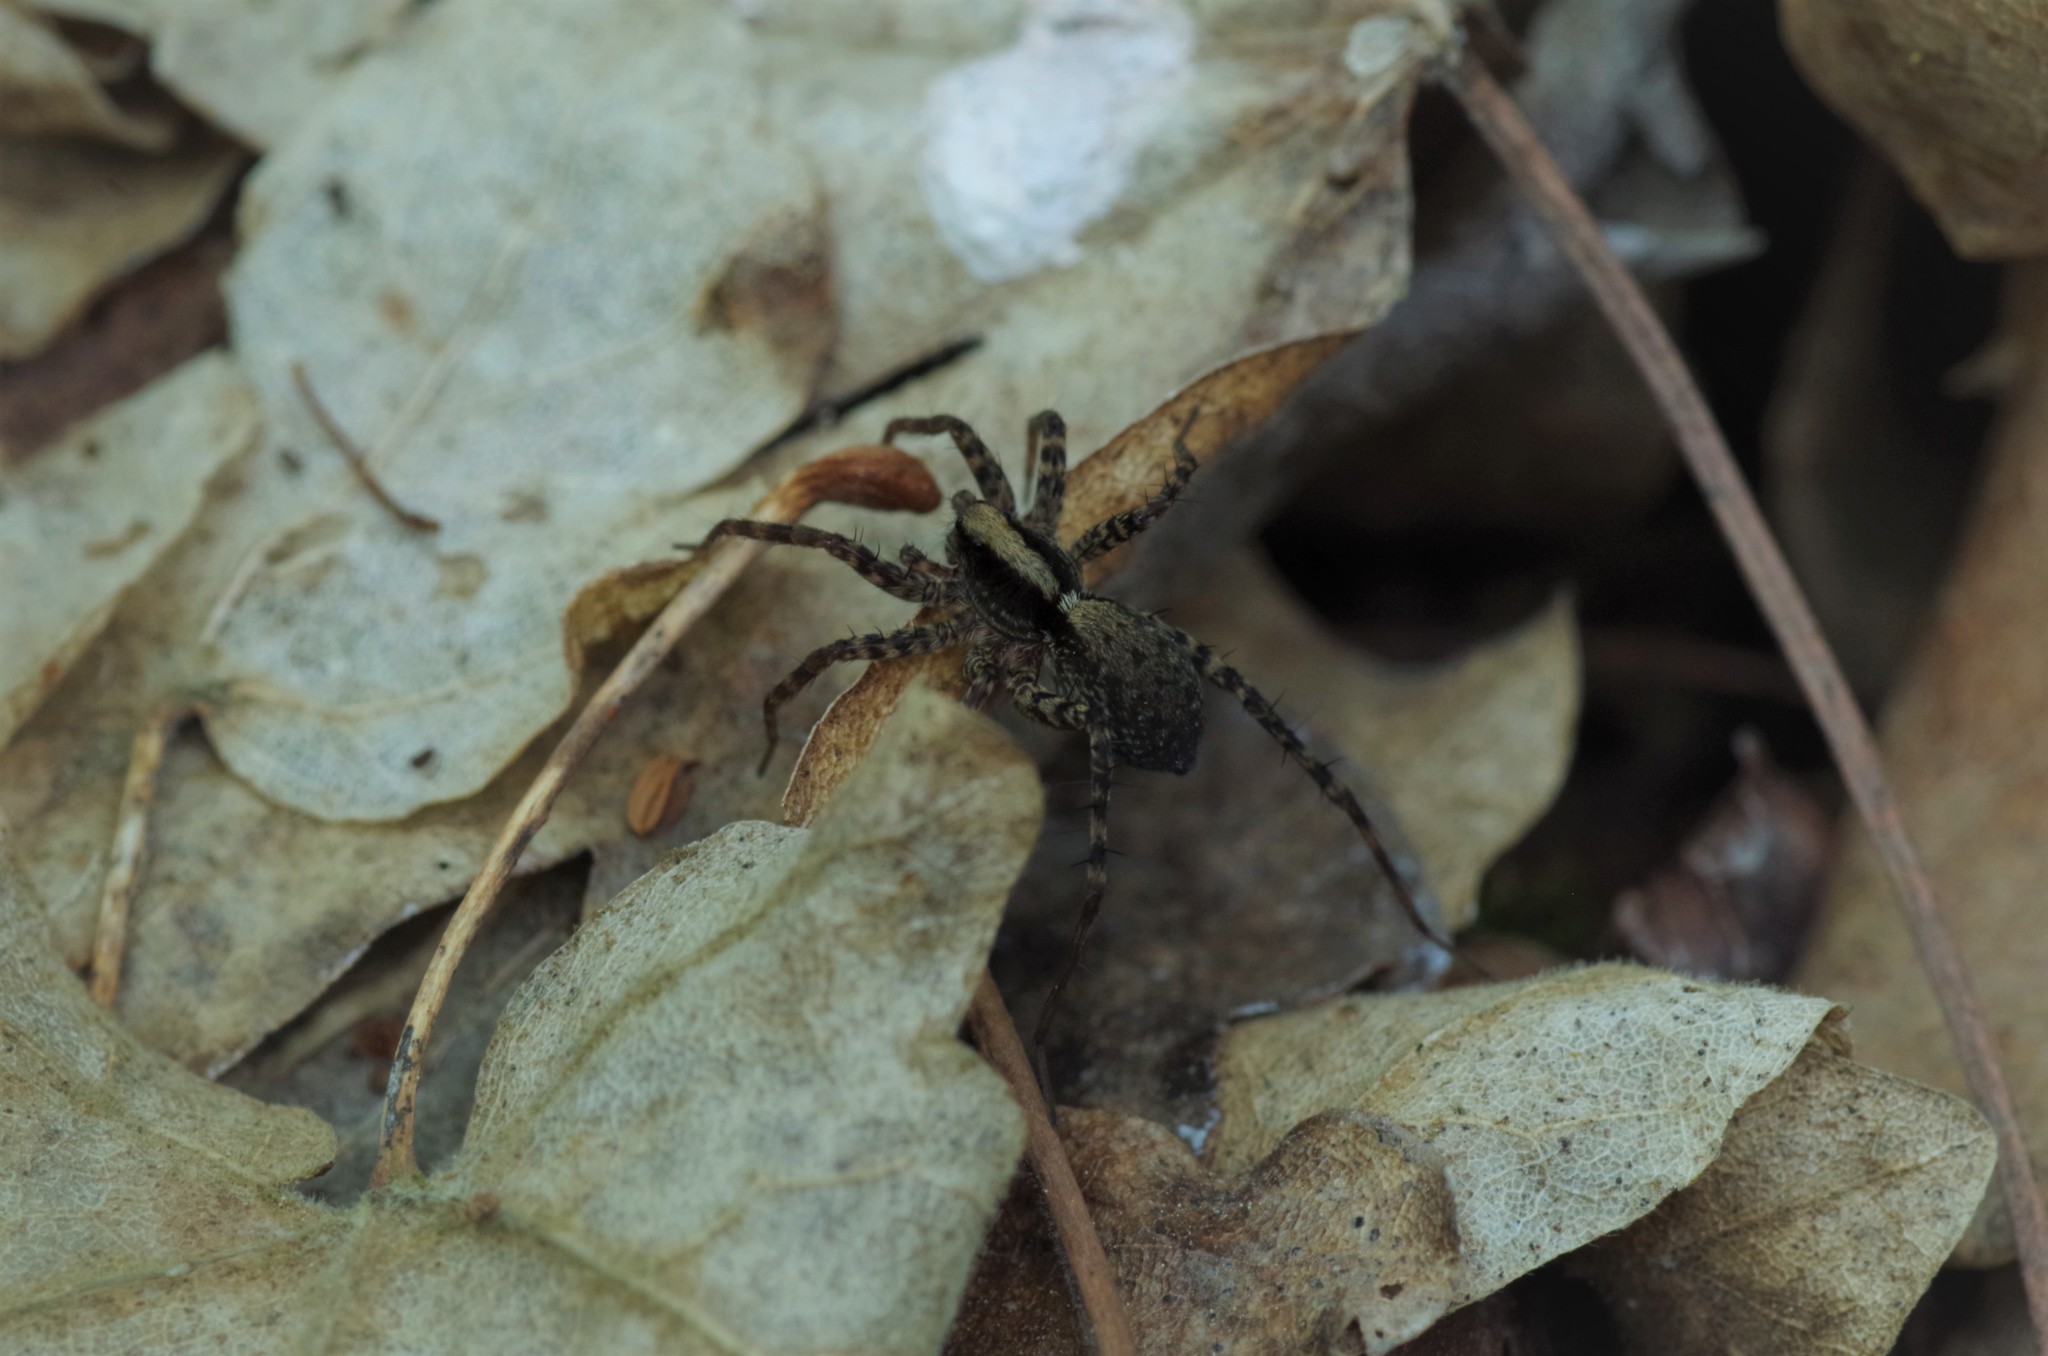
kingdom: Animalia
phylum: Arthropoda
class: Arachnida
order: Araneae
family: Lycosidae
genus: Pardosa
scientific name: Pardosa
